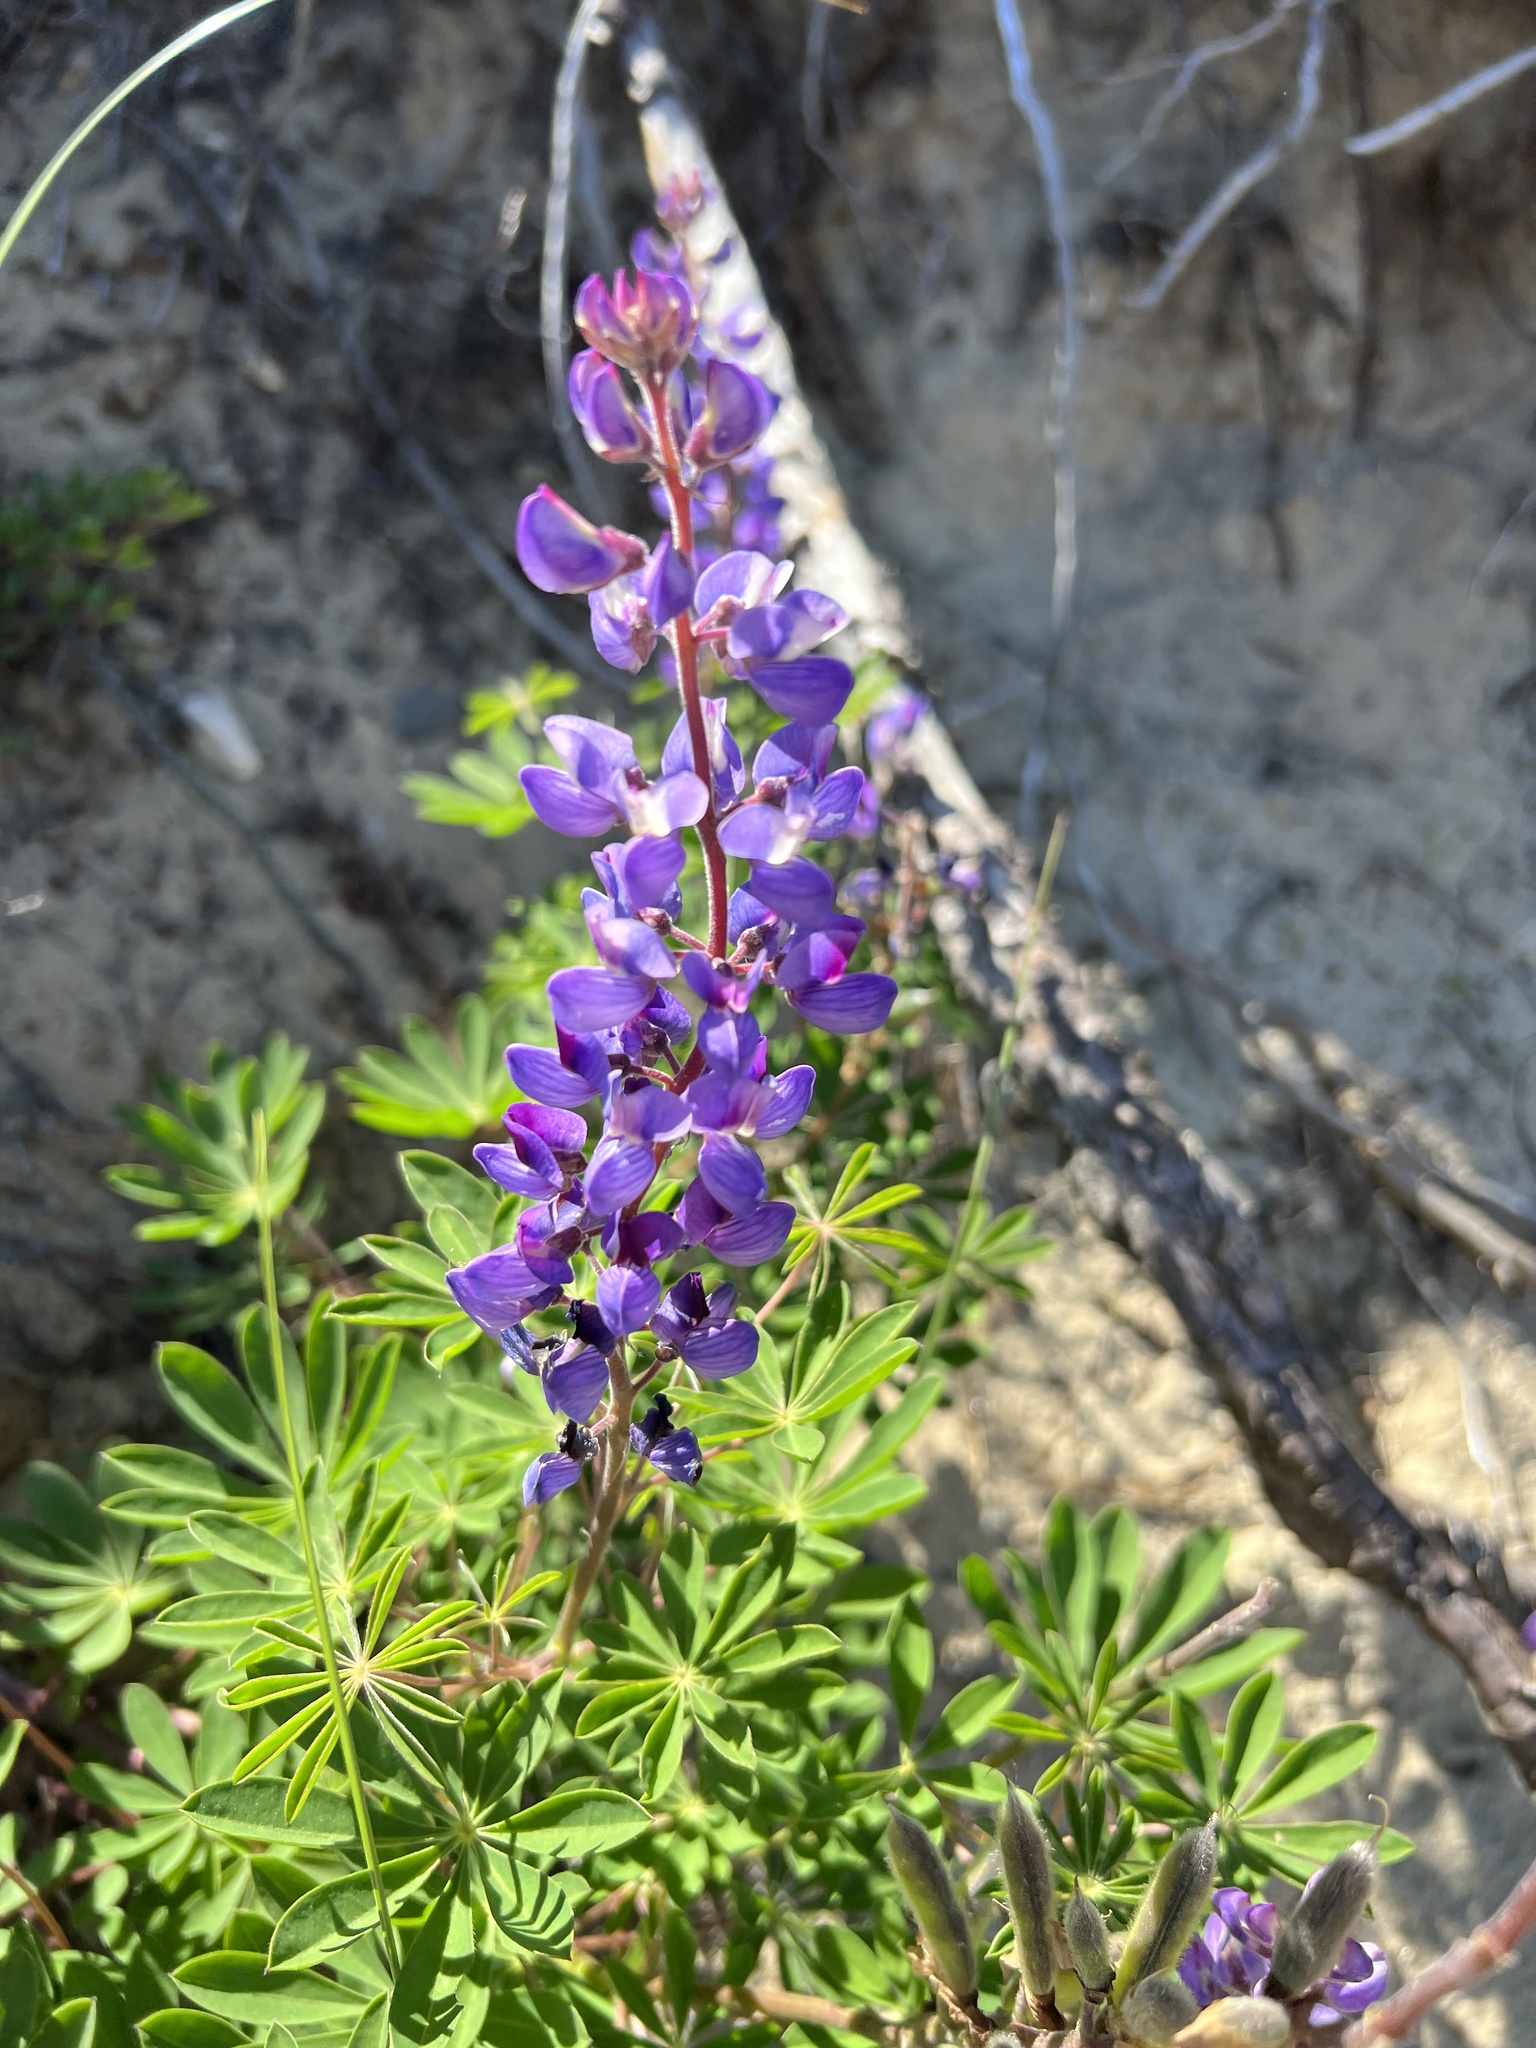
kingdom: Plantae
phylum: Tracheophyta
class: Magnoliopsida
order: Fabales
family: Fabaceae
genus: Lupinus
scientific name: Lupinus perennis
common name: Sundial lupine
